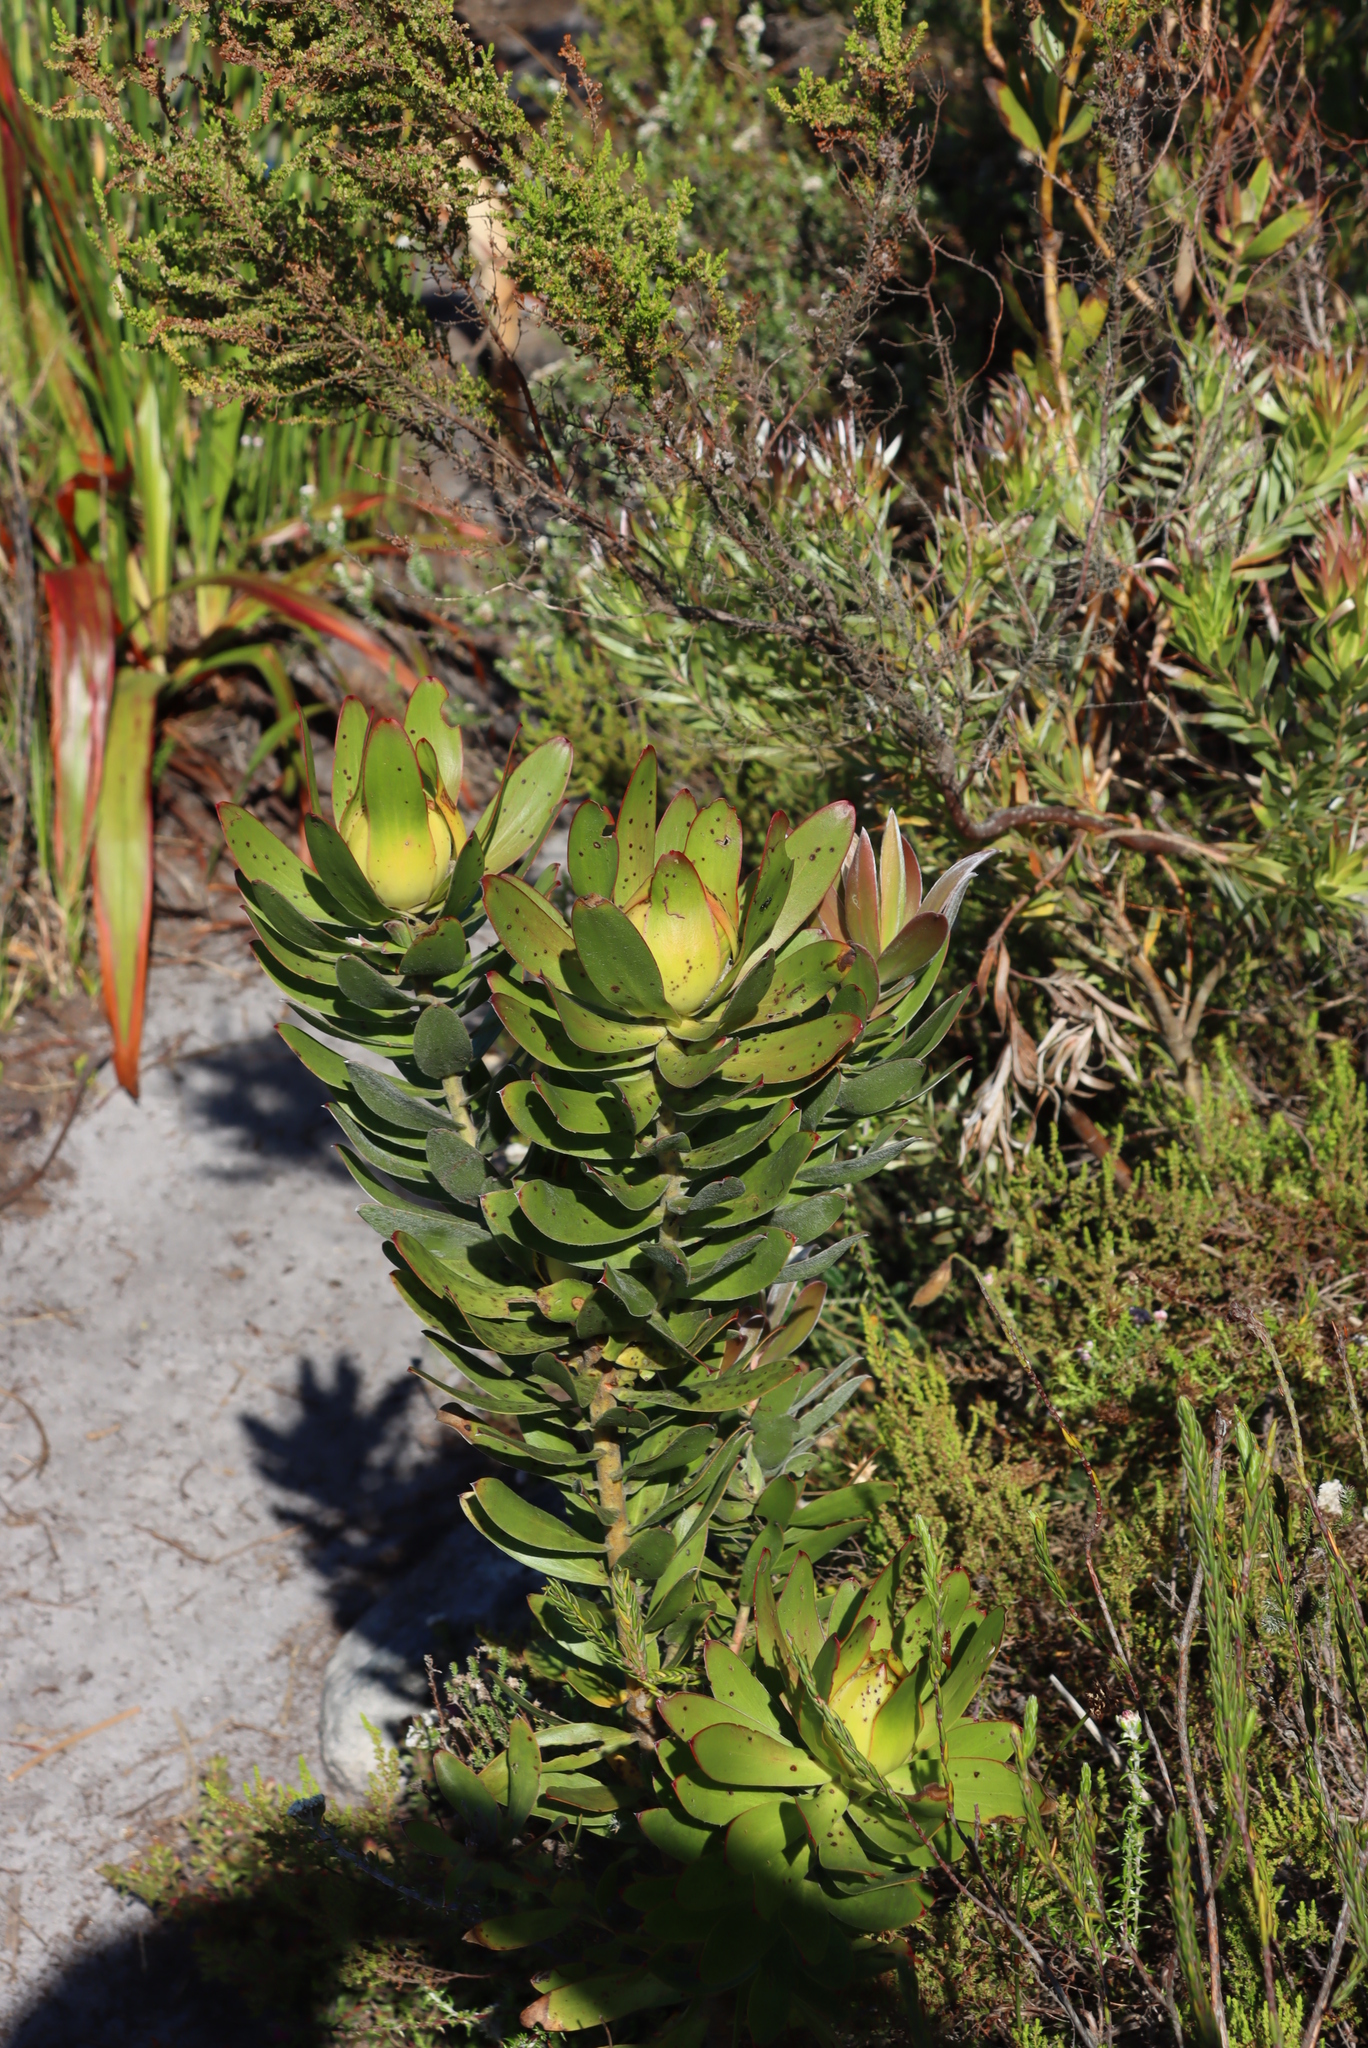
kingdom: Plantae
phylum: Tracheophyta
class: Magnoliopsida
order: Proteales
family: Proteaceae
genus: Leucadendron
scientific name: Leucadendron laureolum
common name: Golden sunshinebush
